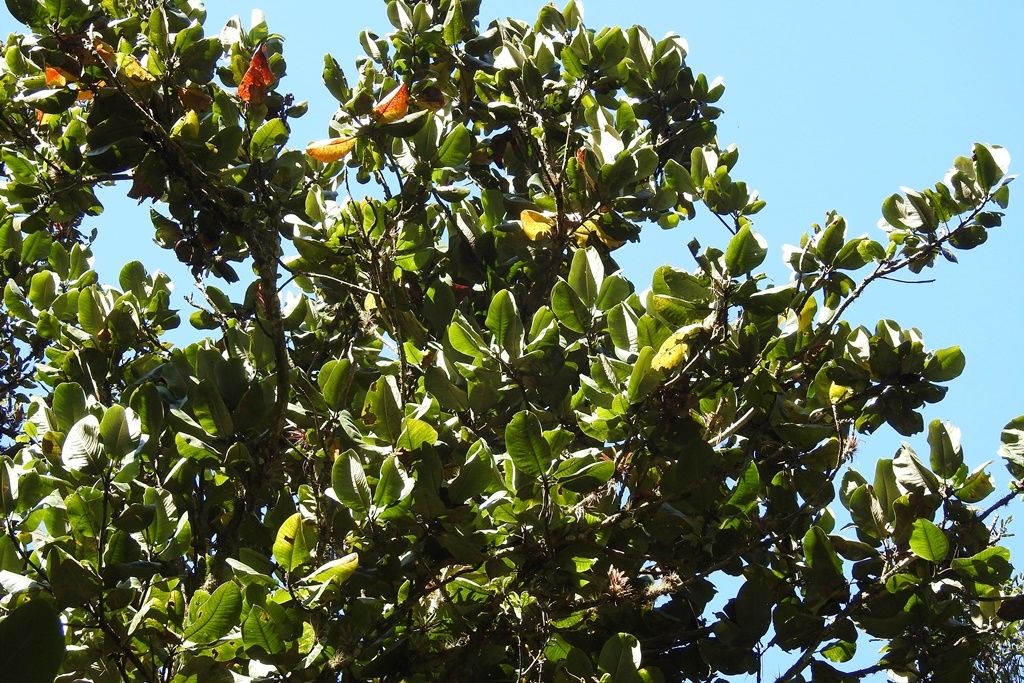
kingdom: Plantae
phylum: Tracheophyta
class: Magnoliopsida
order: Magnoliales
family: Magnoliaceae
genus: Magnolia
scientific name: Magnolia sharpii
